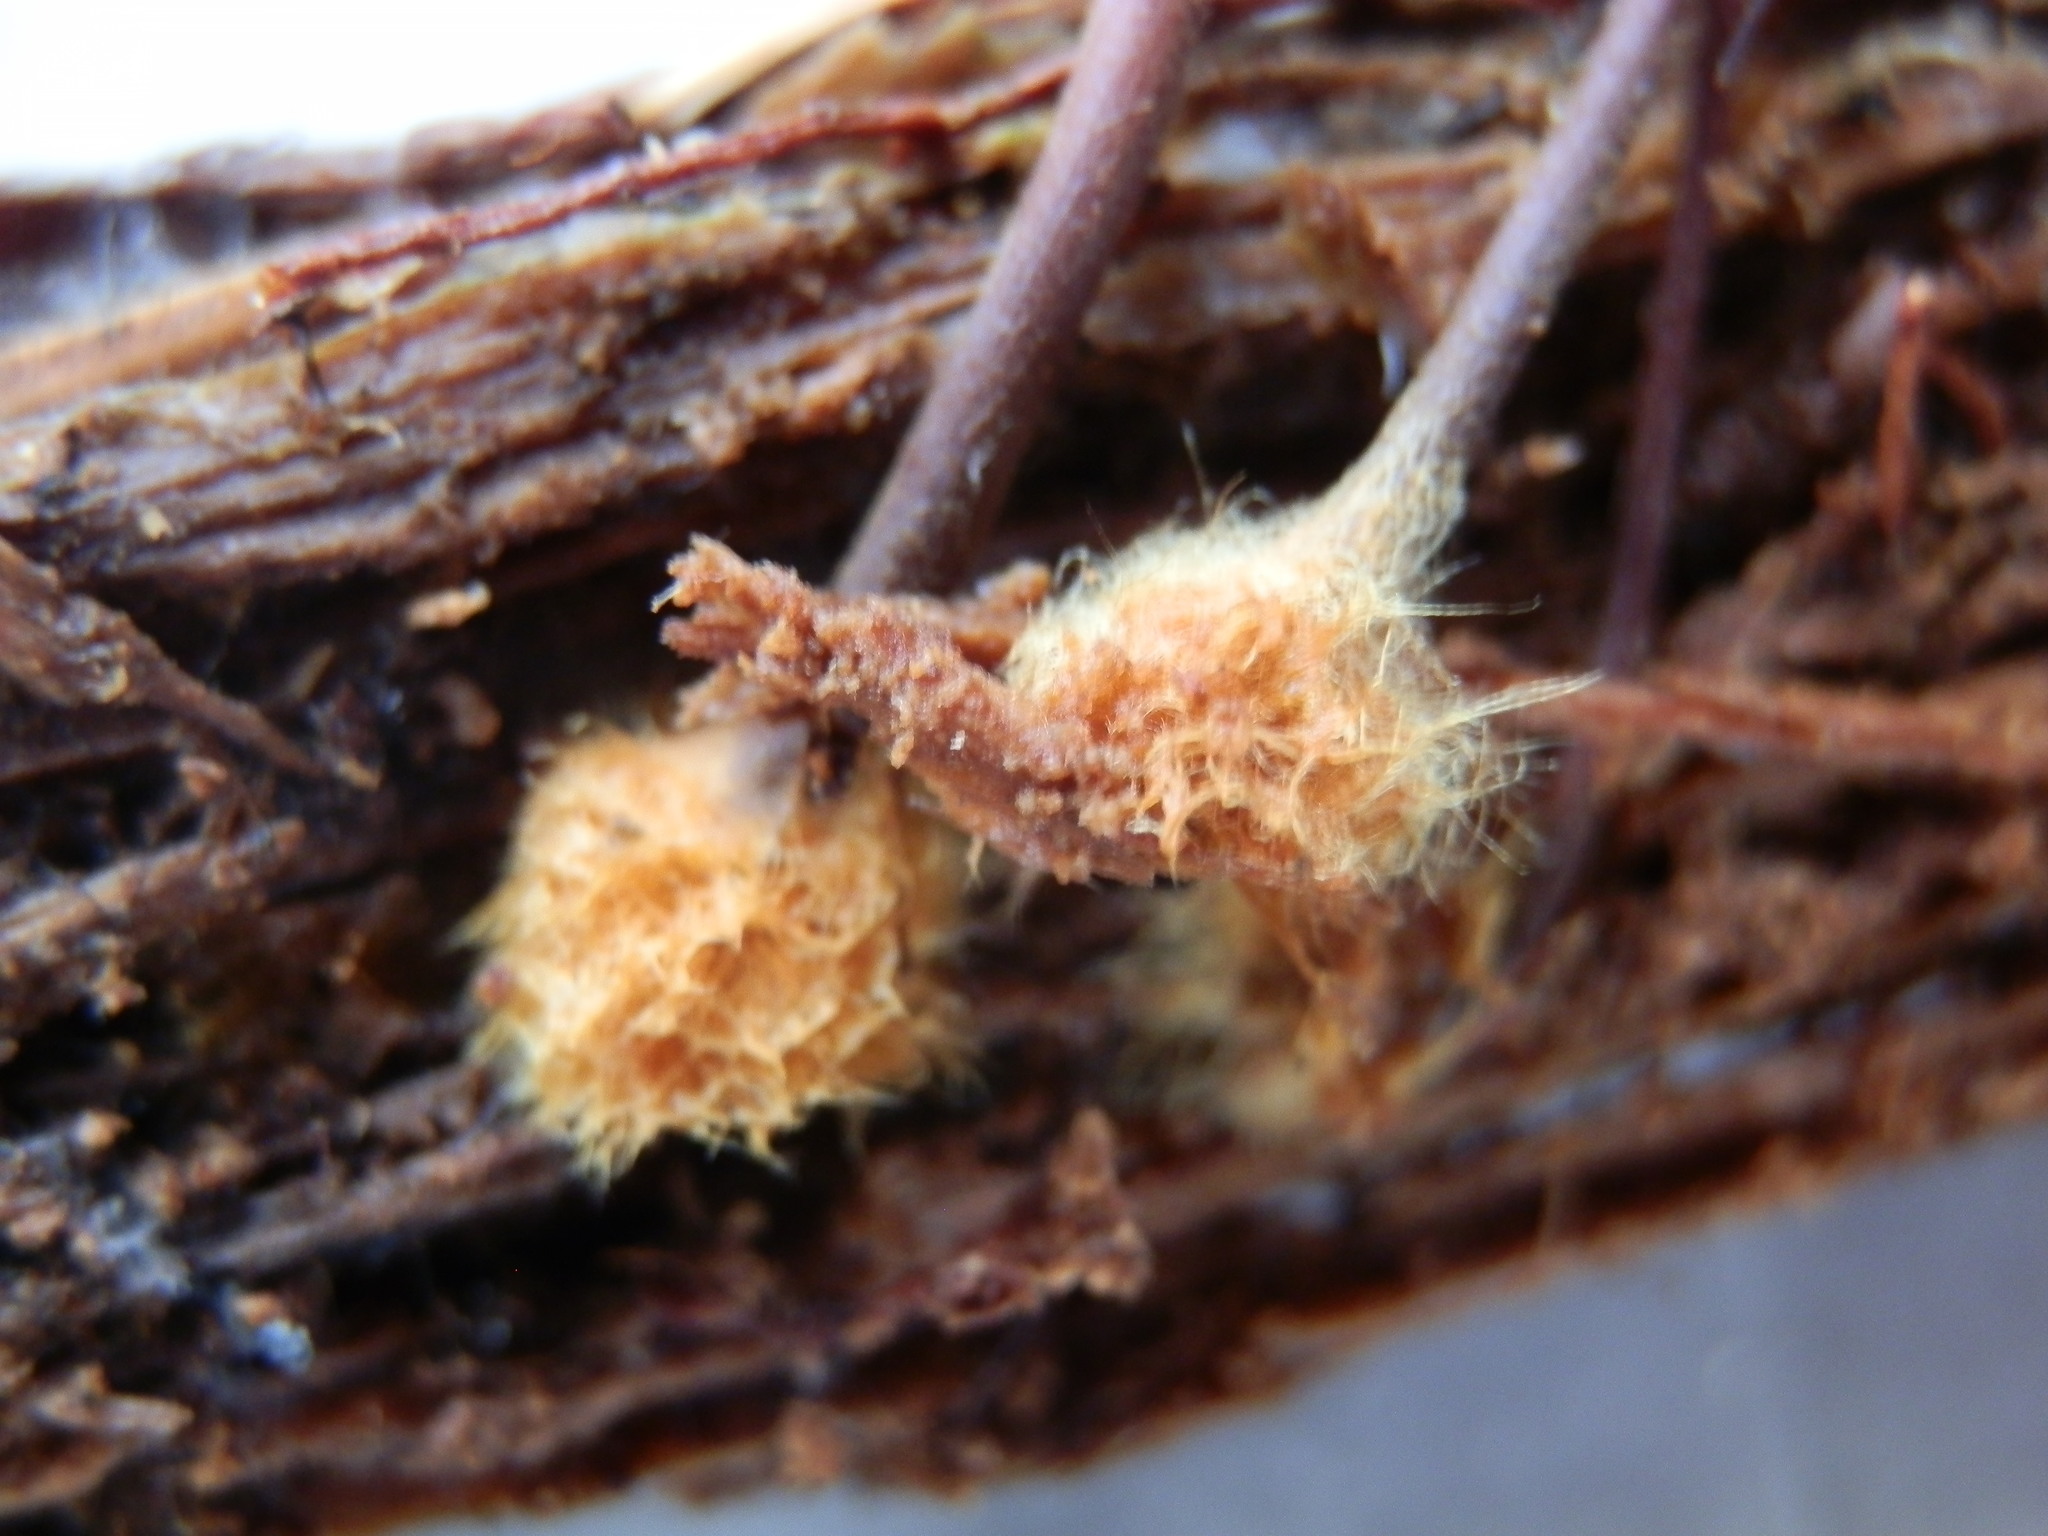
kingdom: Fungi
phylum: Basidiomycota
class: Agaricomycetes
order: Agaricales
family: Mycenaceae
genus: Xeromphalina
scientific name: Xeromphalina campanella
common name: Pinewood gingertail
